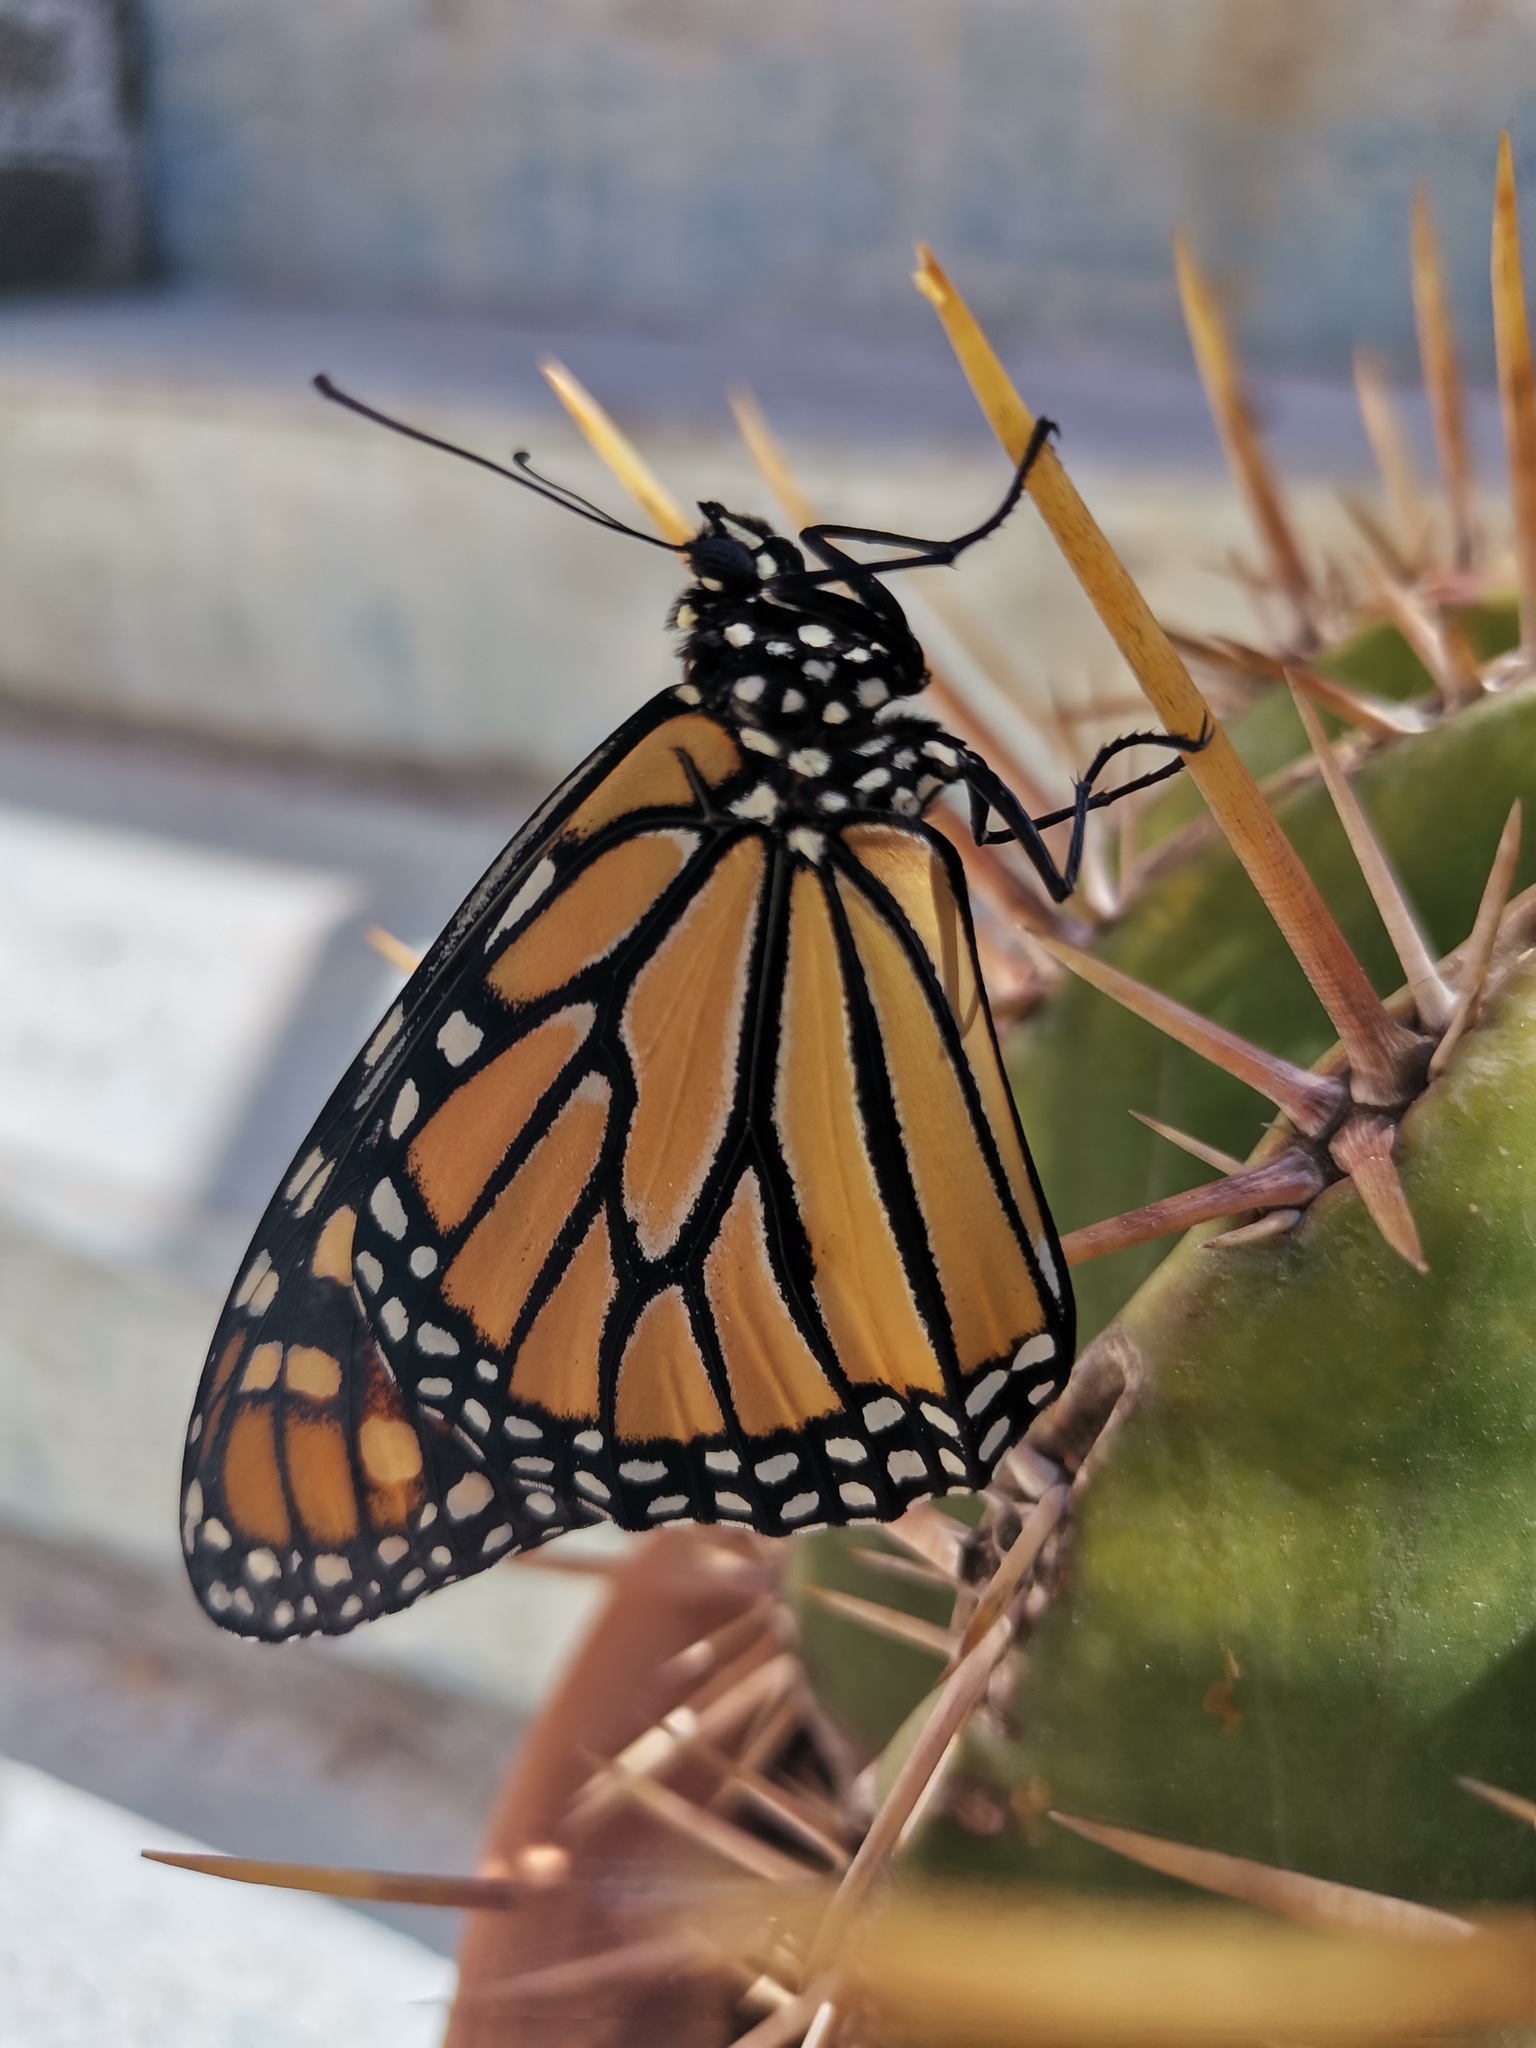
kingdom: Animalia
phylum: Arthropoda
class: Insecta
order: Lepidoptera
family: Nymphalidae
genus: Danaus
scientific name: Danaus plexippus
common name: Monarch
